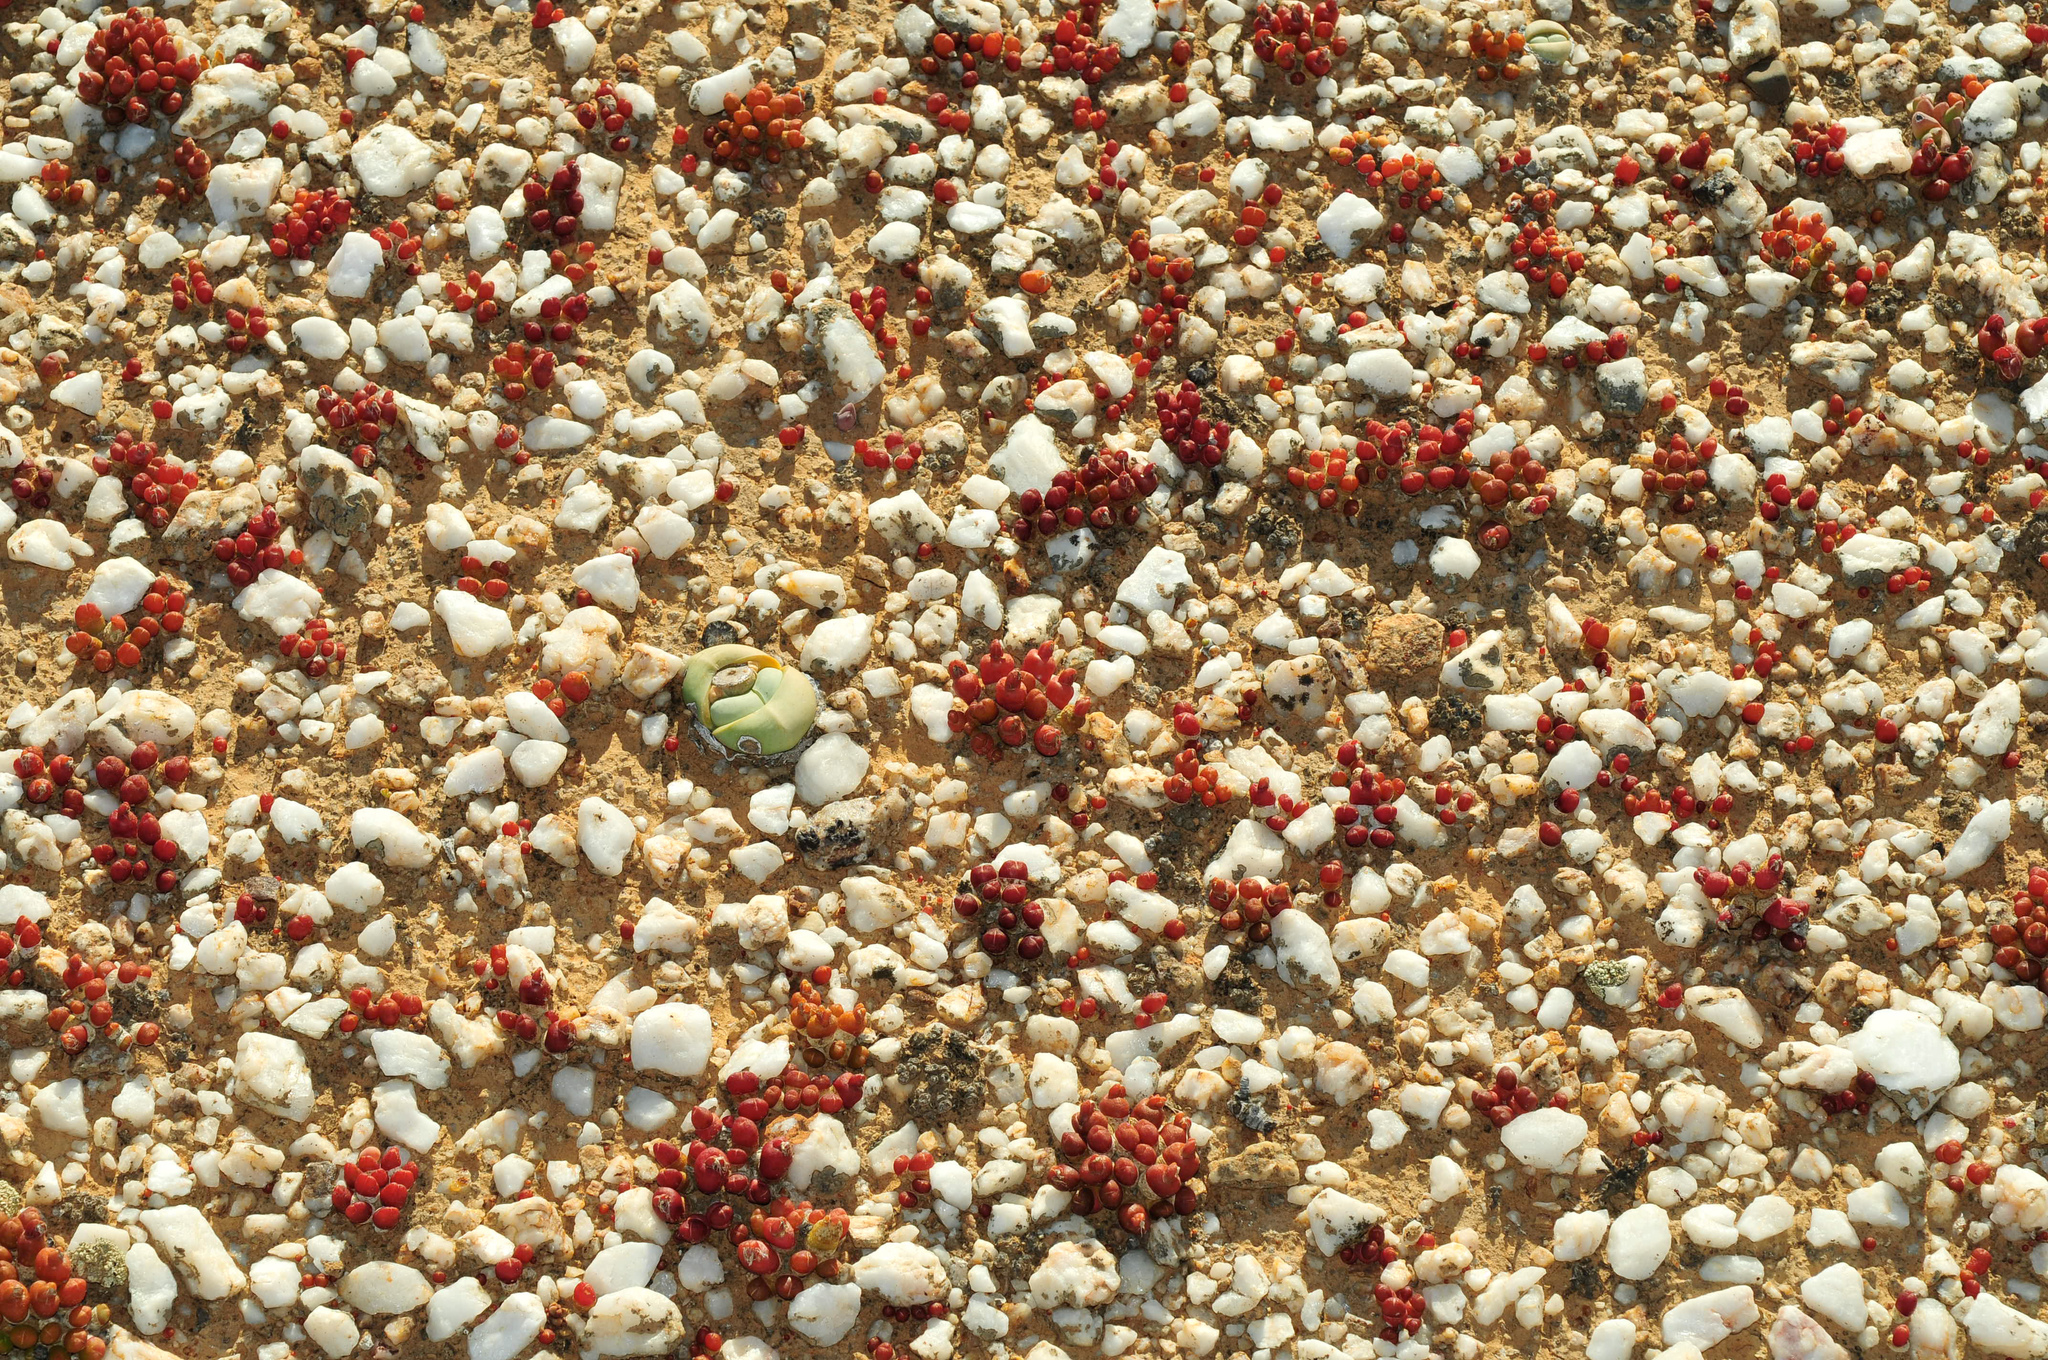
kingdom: Plantae
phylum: Tracheophyta
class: Magnoliopsida
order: Caryophyllales
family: Aizoaceae
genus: Oophytum
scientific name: Oophytum nanum
